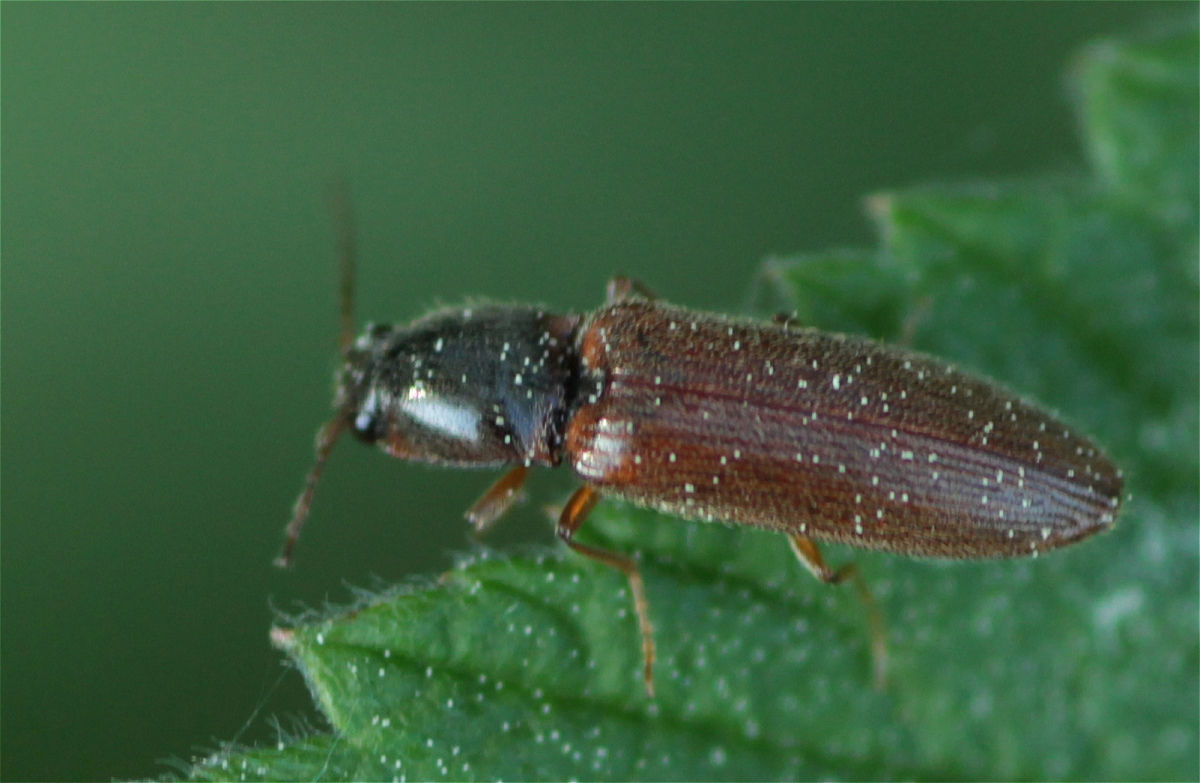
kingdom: Animalia
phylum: Arthropoda
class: Insecta
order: Coleoptera
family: Elateridae
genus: Athous
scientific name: Athous subfuscus
